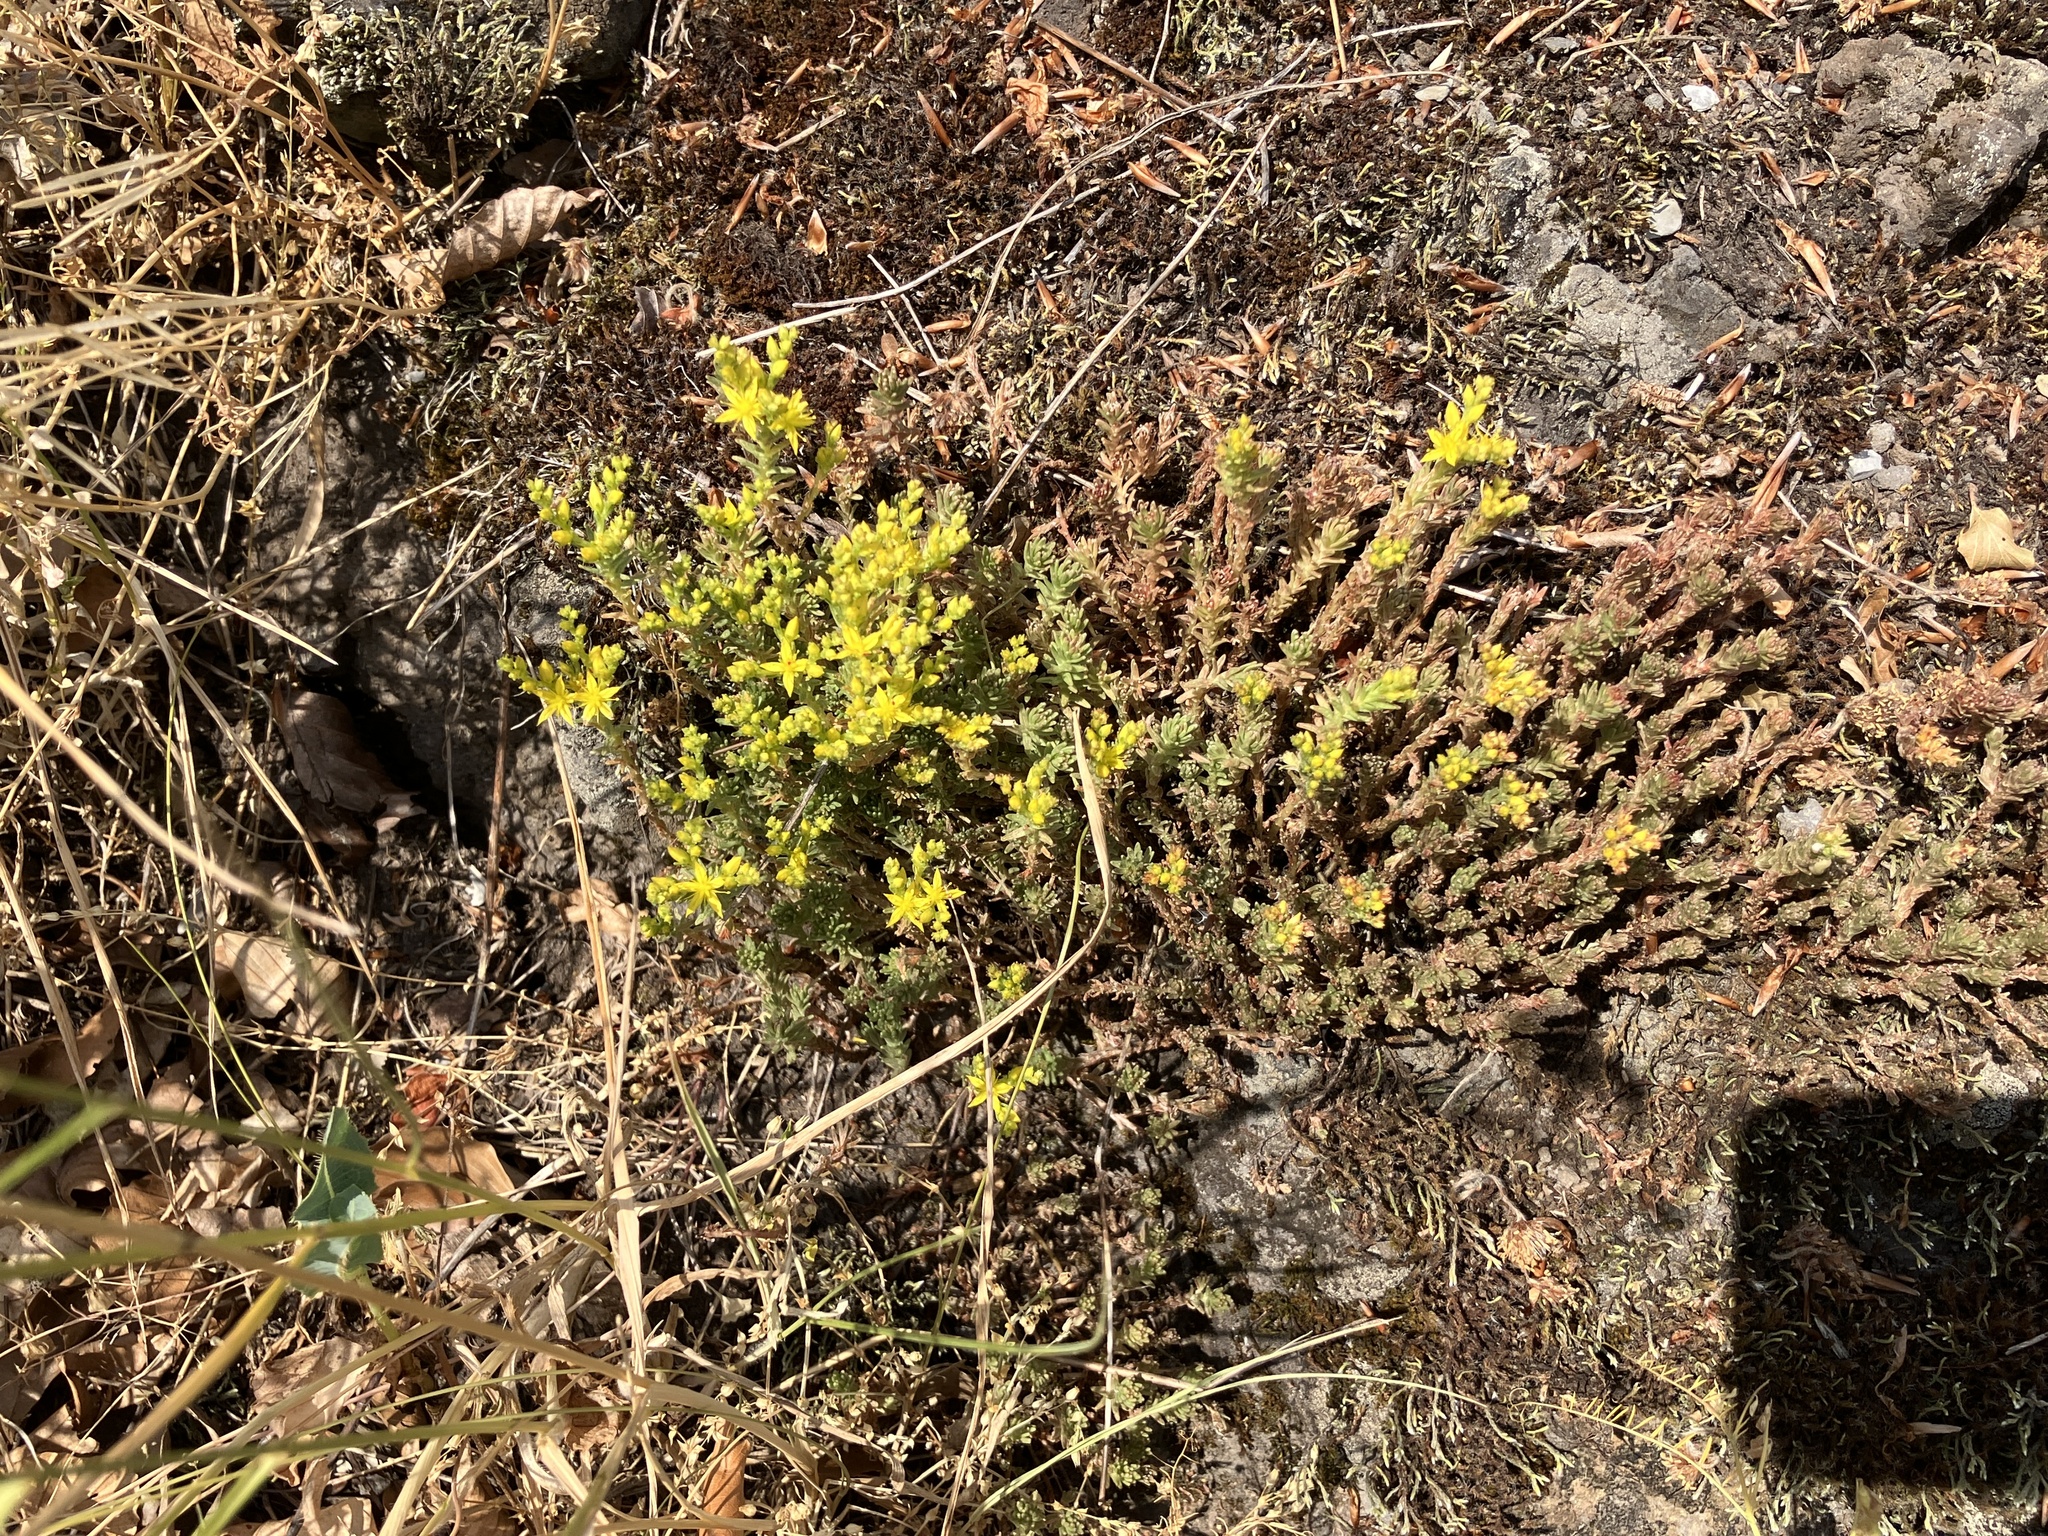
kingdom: Plantae
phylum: Tracheophyta
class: Magnoliopsida
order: Saxifragales
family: Crassulaceae
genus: Sedum
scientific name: Sedum sexangulare
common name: Tasteless stonecrop
